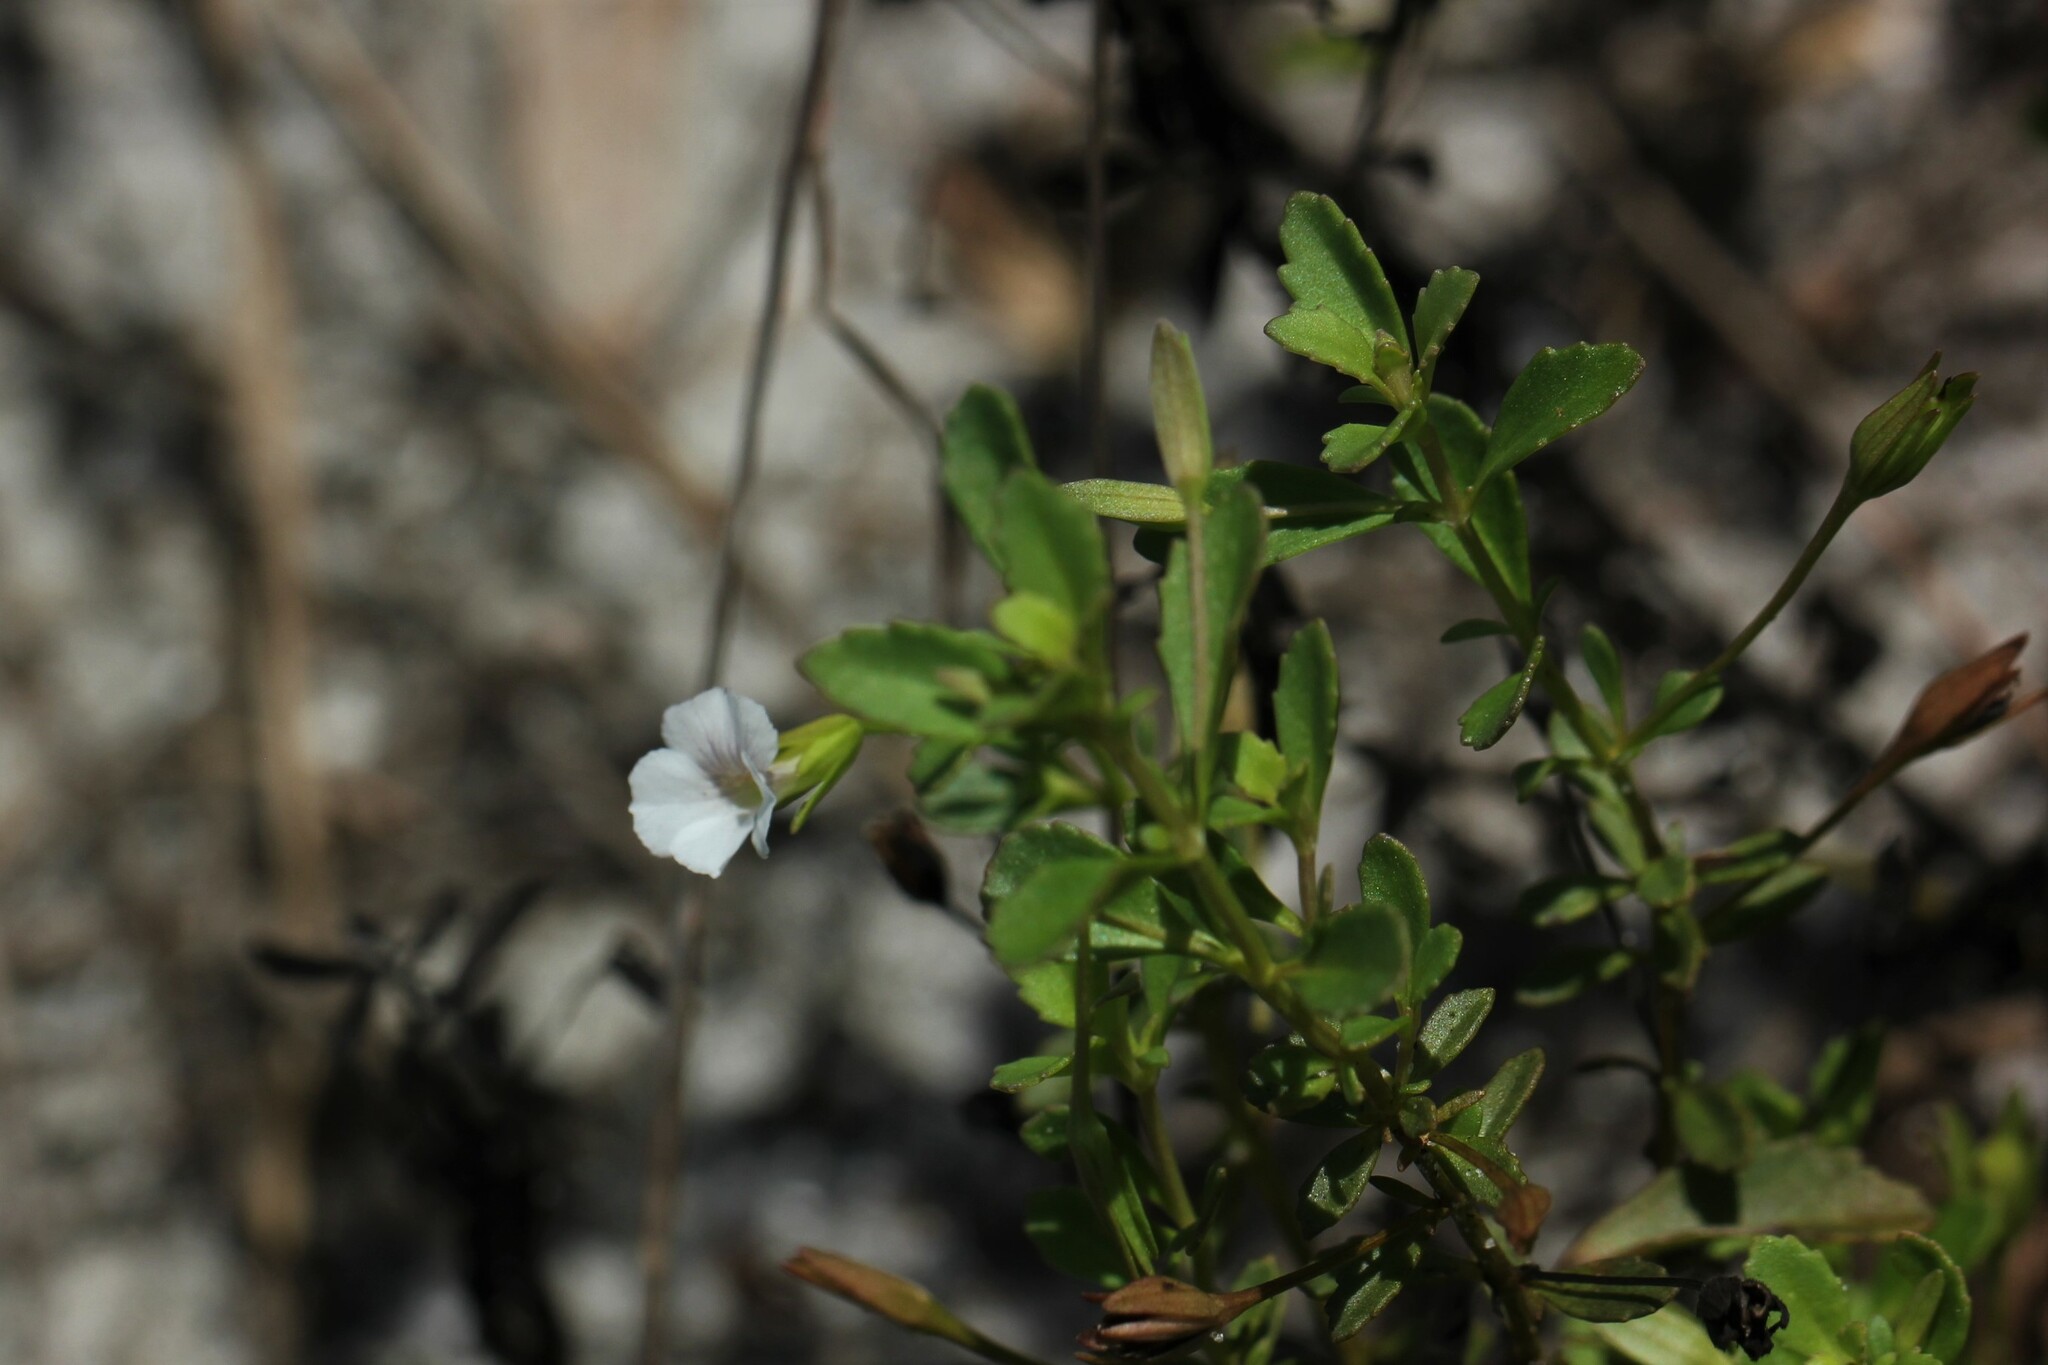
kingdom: Plantae
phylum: Tracheophyta
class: Magnoliopsida
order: Lamiales
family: Plantaginaceae
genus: Mecardonia
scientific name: Mecardonia acuminata
